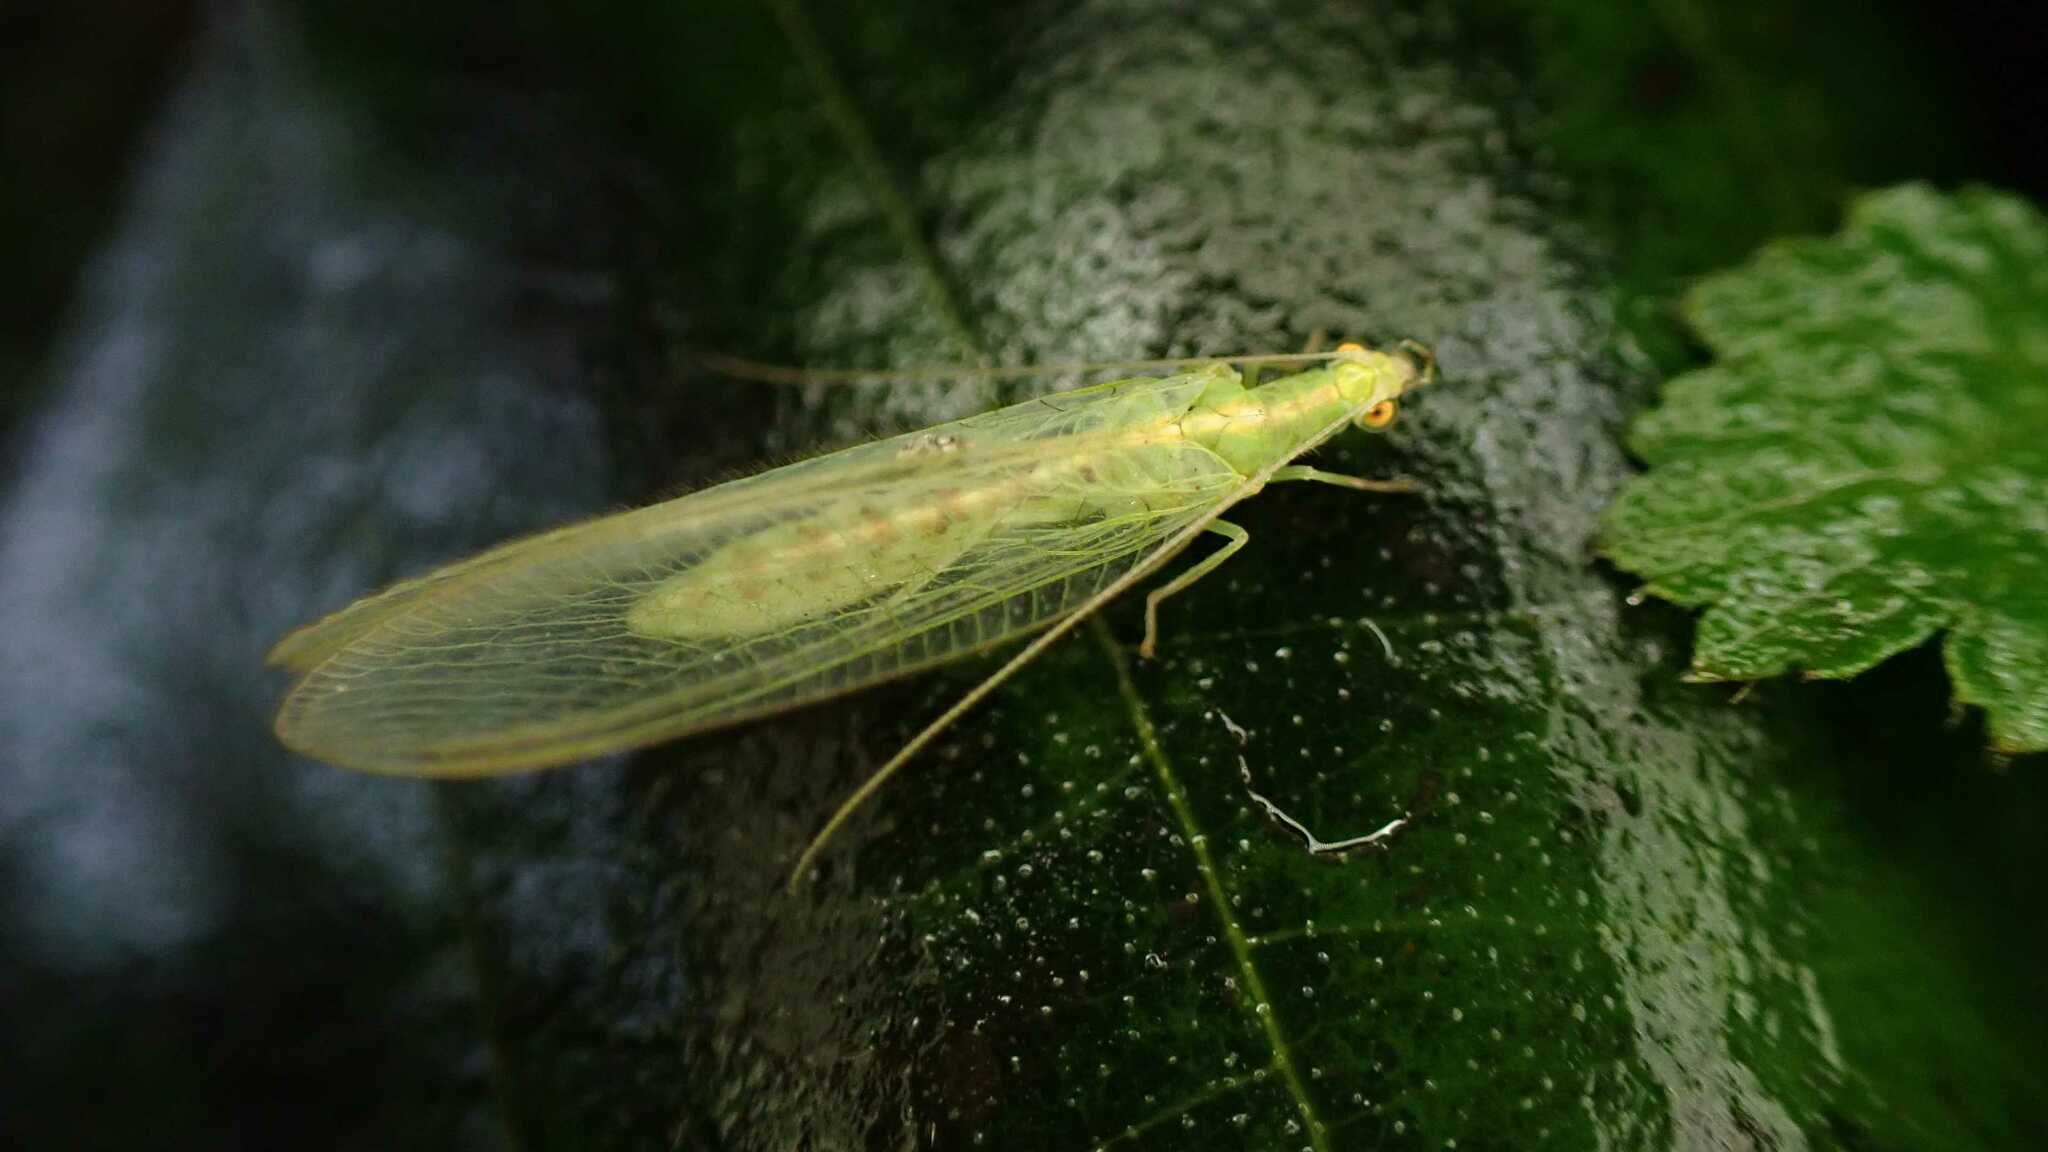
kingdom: Animalia
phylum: Arthropoda
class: Insecta
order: Neuroptera
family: Chrysopidae
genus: Chrysoperla
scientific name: Chrysoperla
